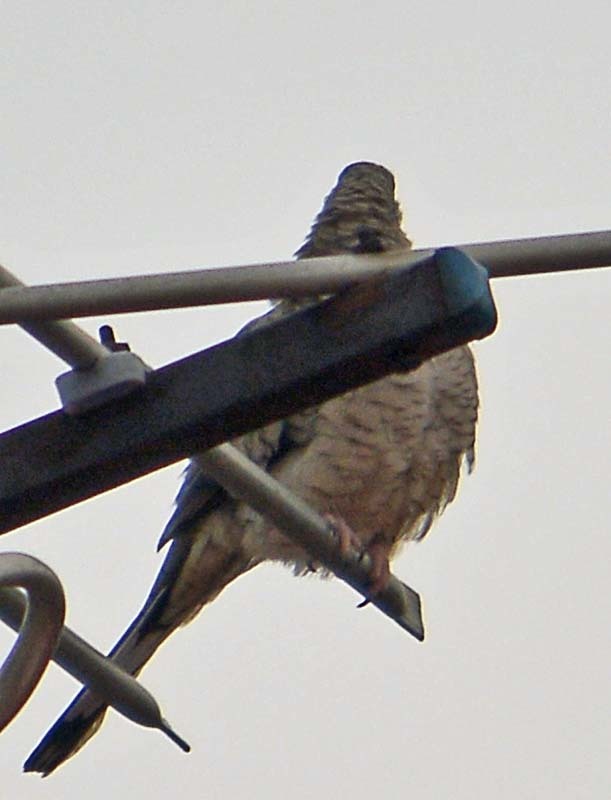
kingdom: Animalia
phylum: Chordata
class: Aves
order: Columbiformes
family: Columbidae
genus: Columbina
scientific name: Columbina inca
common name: Inca dove
